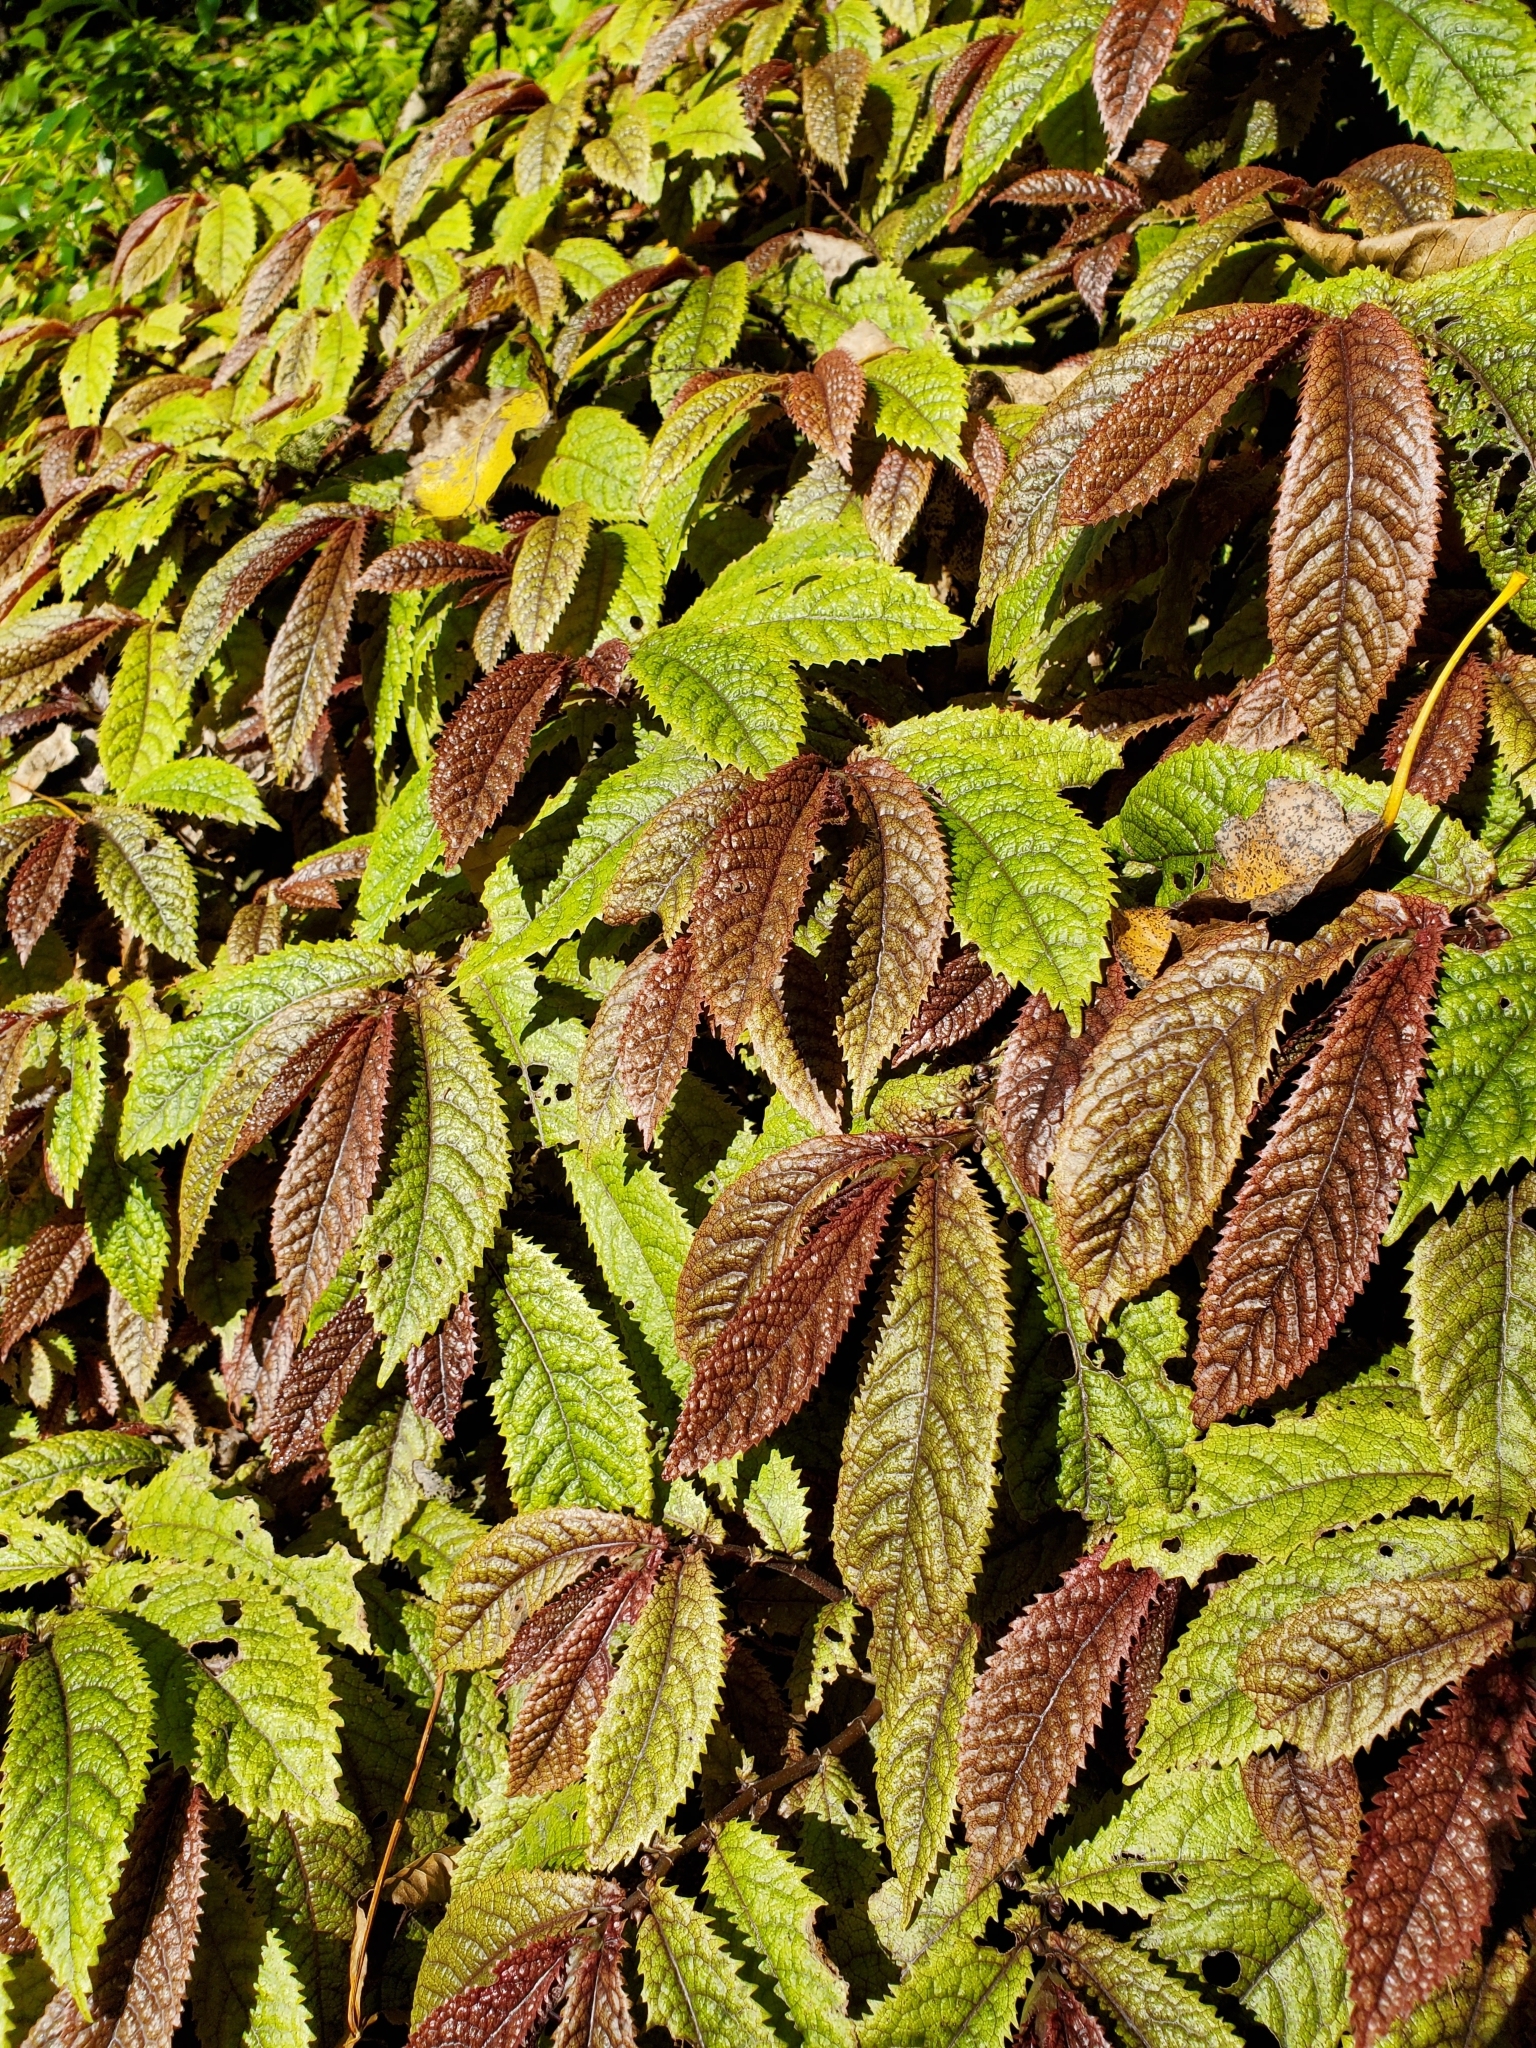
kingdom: Plantae
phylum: Tracheophyta
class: Magnoliopsida
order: Rosales
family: Urticaceae
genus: Elatostema
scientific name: Elatostema rugosum
